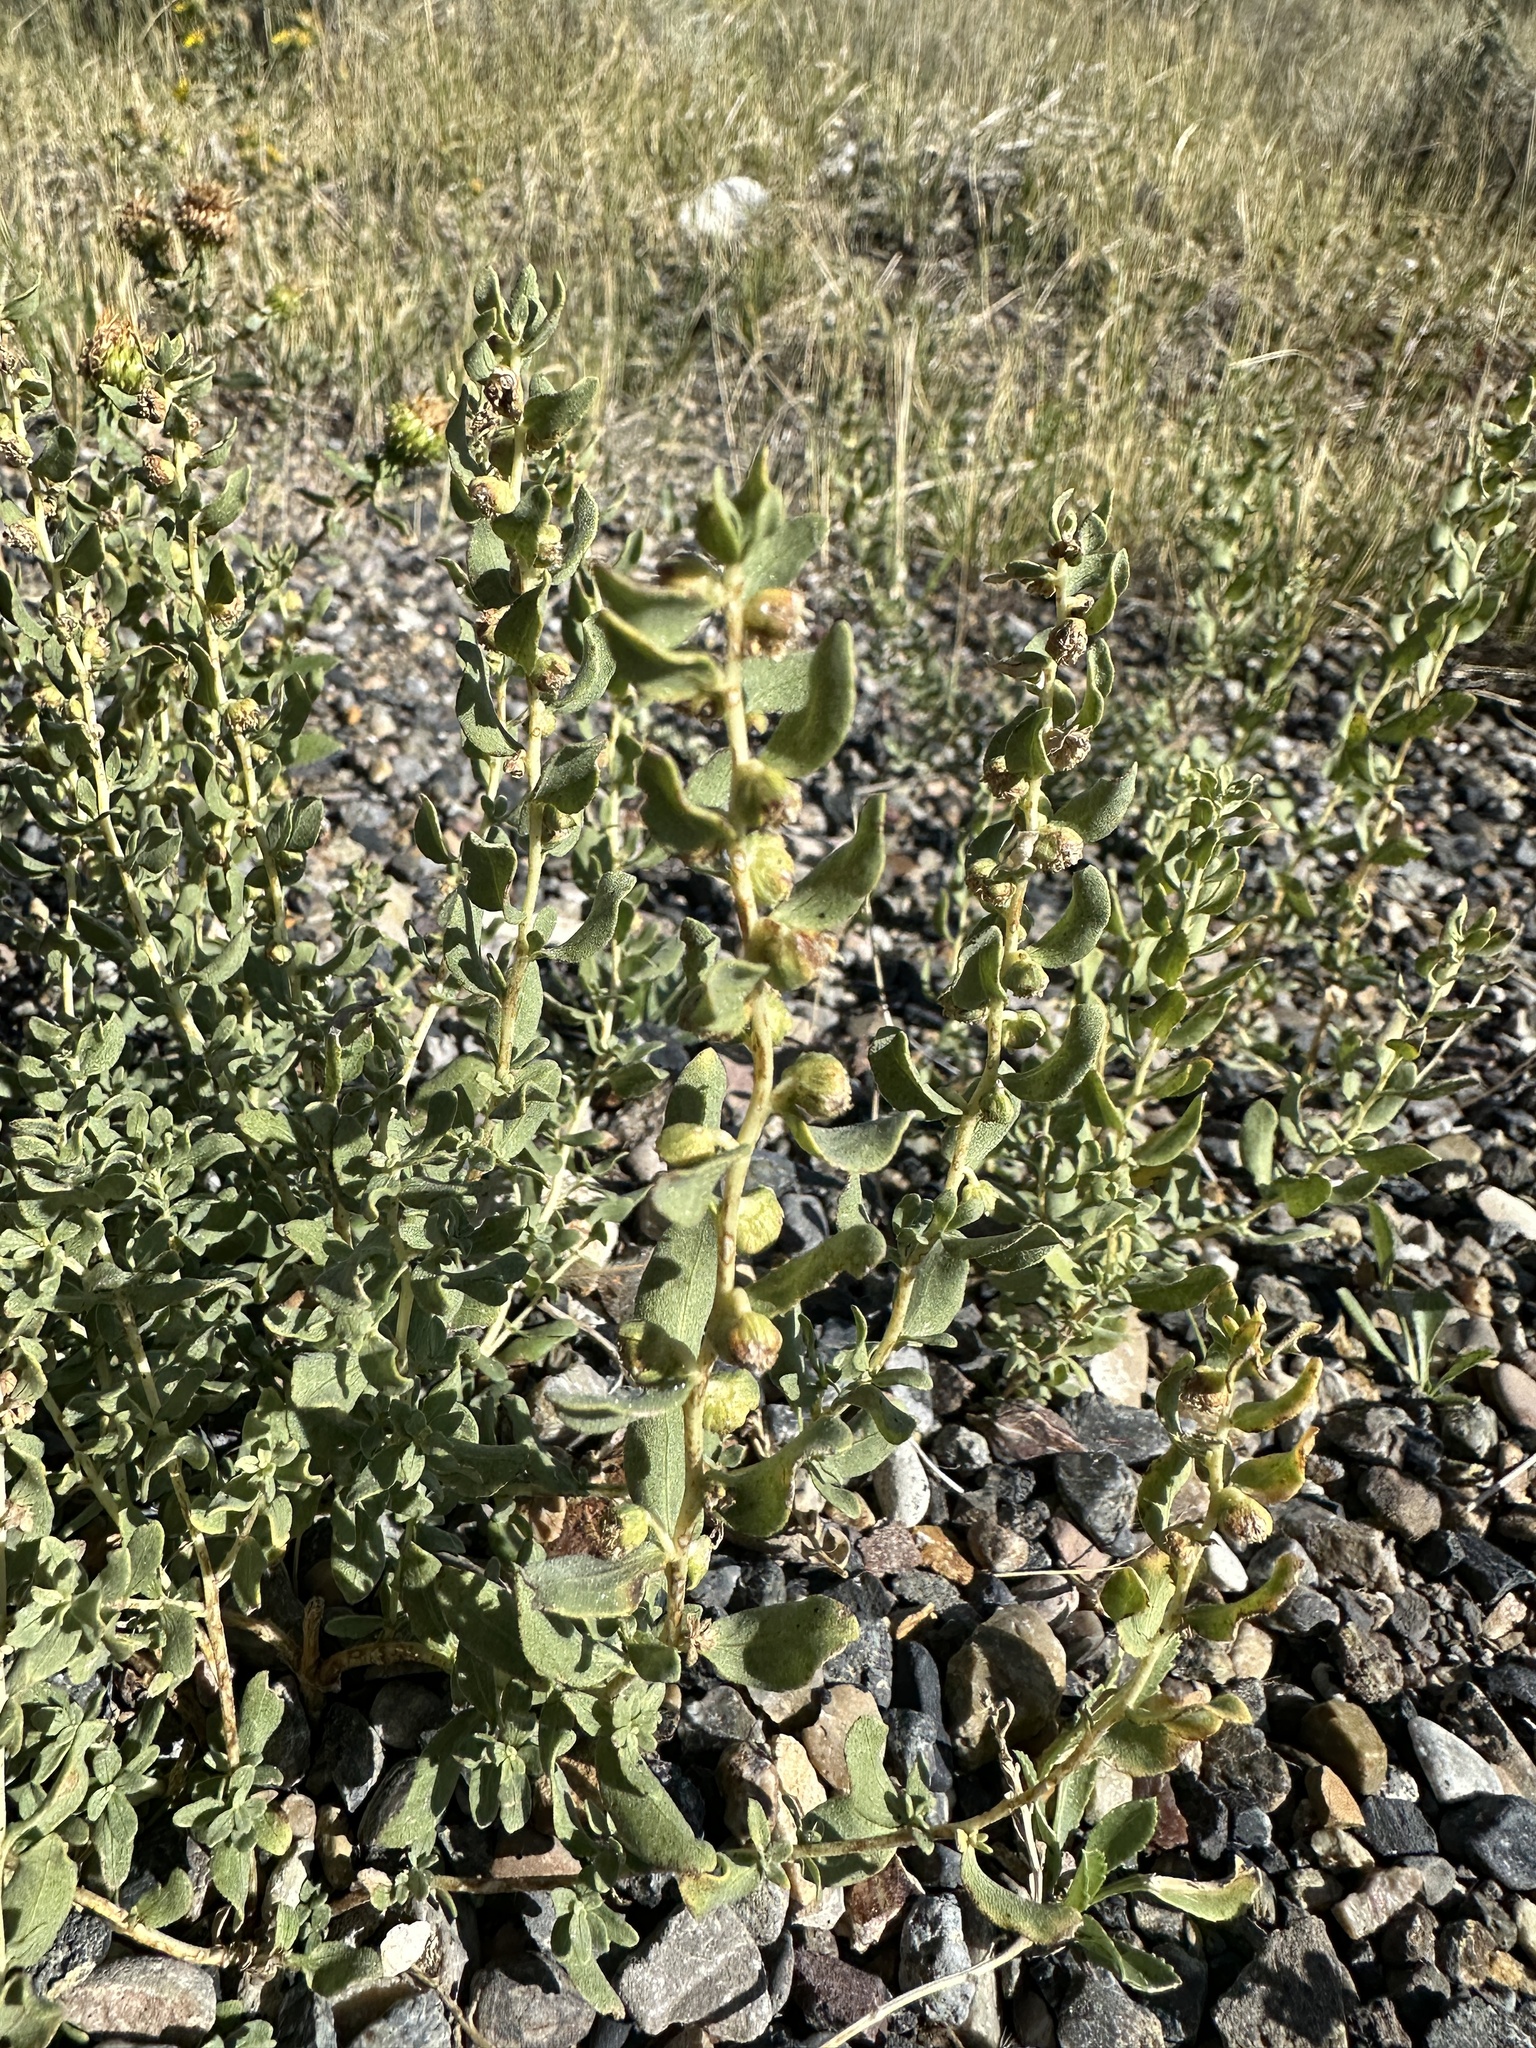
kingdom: Plantae
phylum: Tracheophyta
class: Magnoliopsida
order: Asterales
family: Asteraceae
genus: Iva
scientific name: Iva axillaris
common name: Poverty sumpweed
